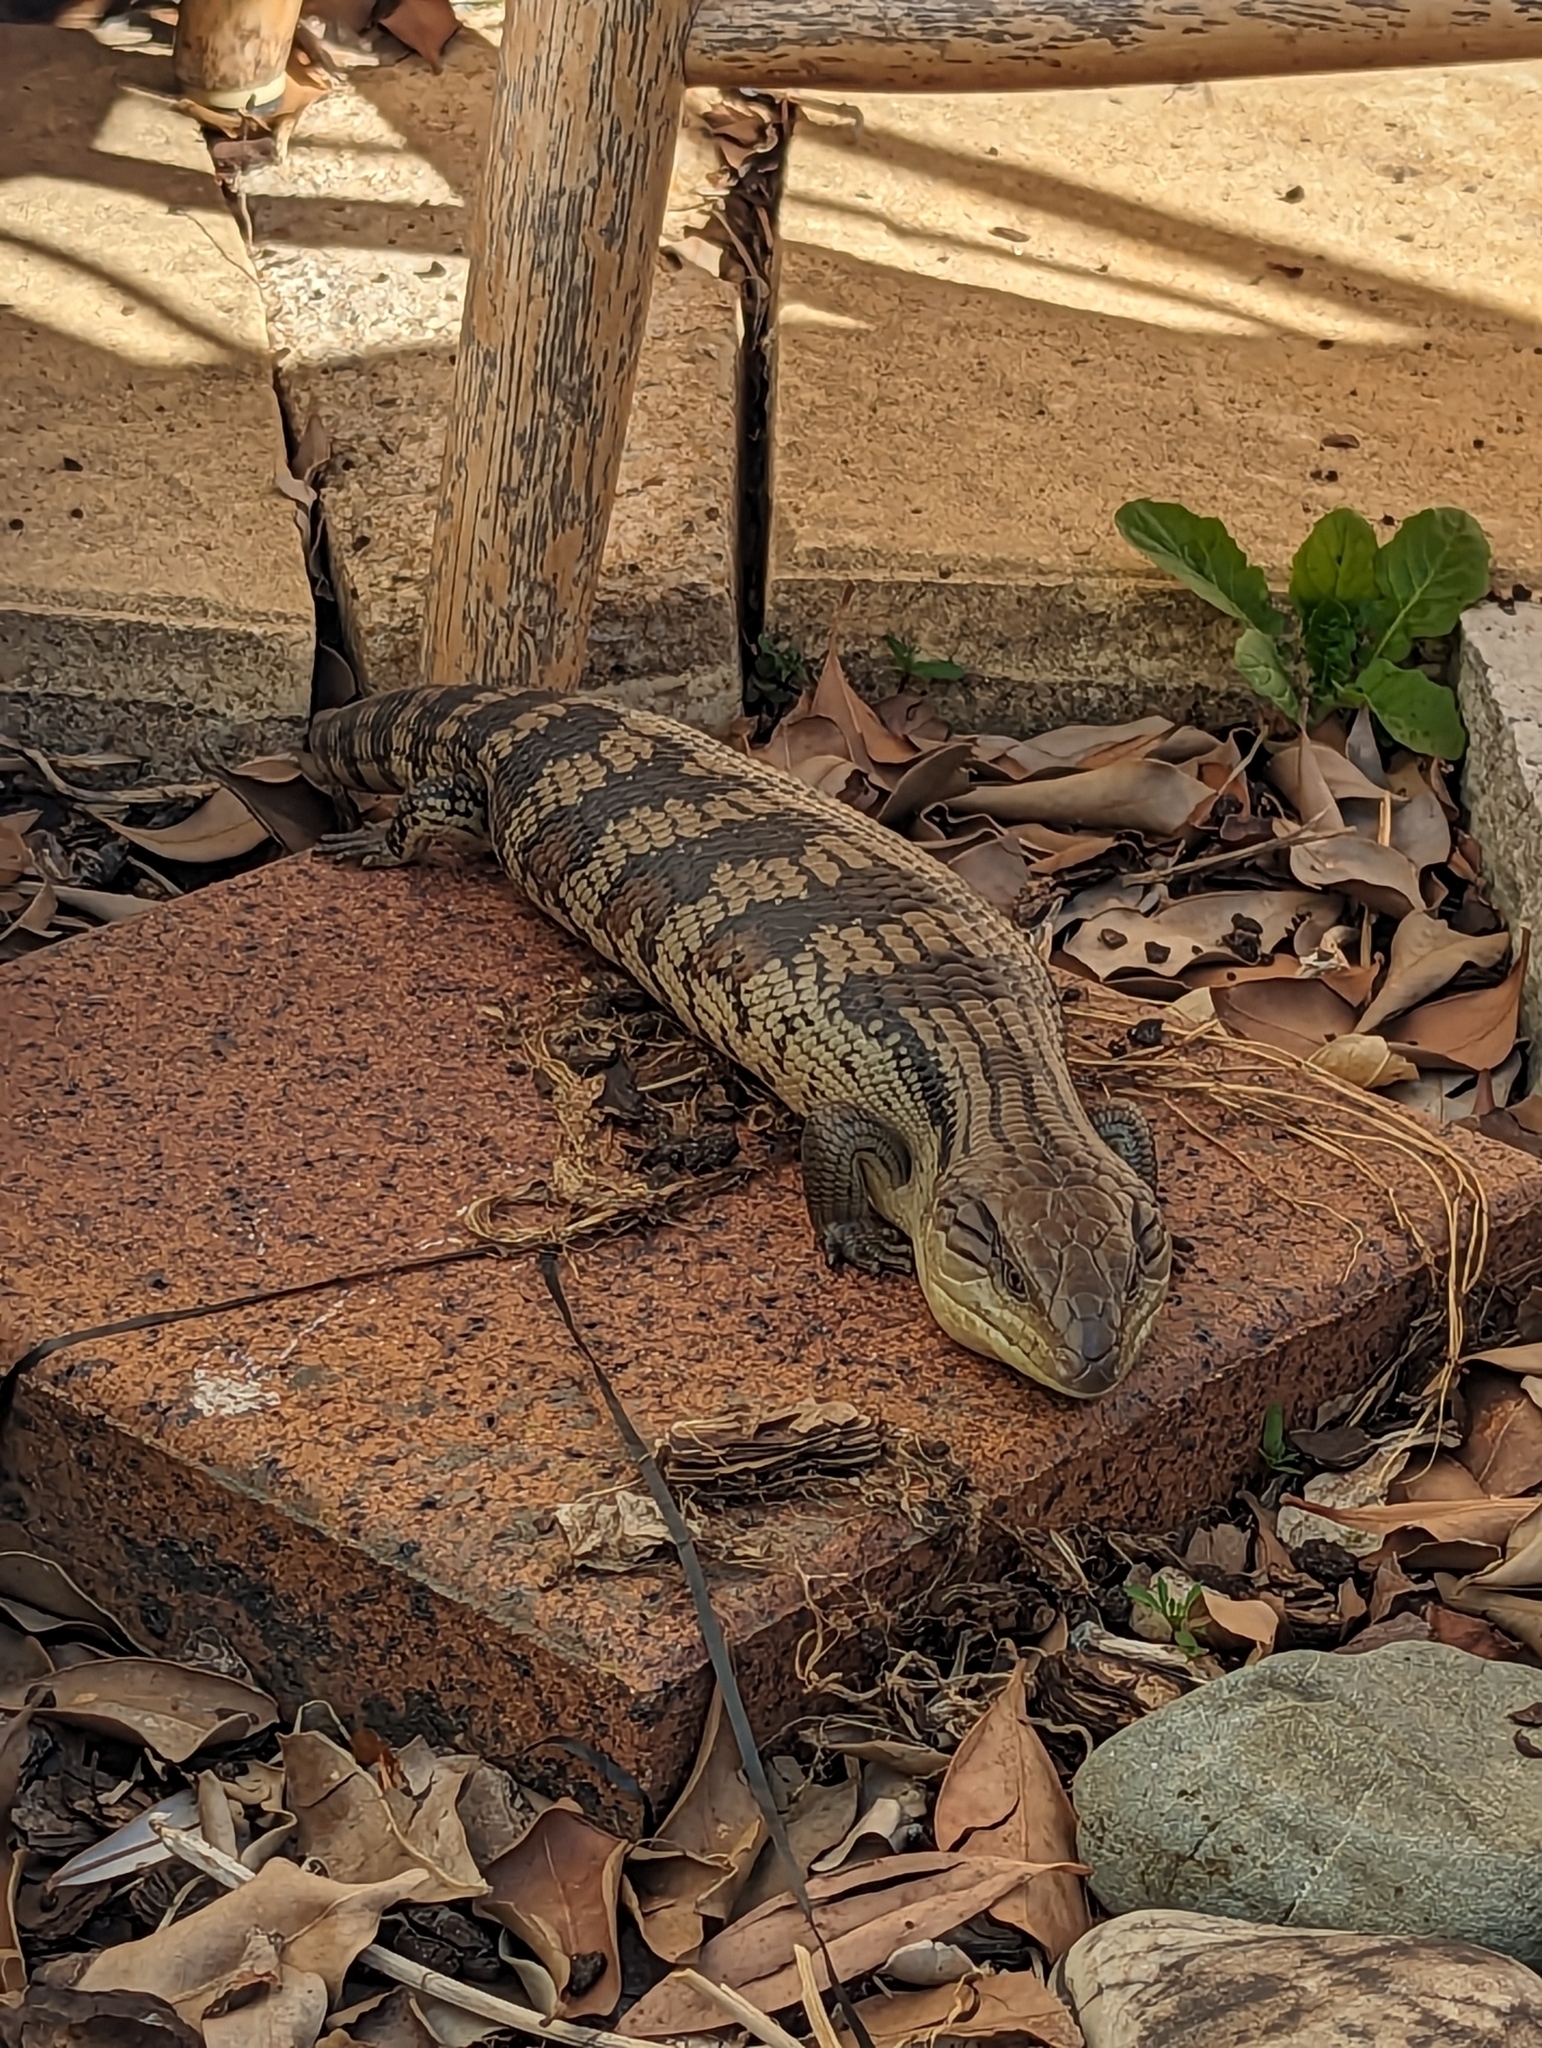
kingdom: Animalia
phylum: Chordata
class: Squamata
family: Scincidae
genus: Tiliqua
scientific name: Tiliqua scincoides
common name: Common bluetongue
